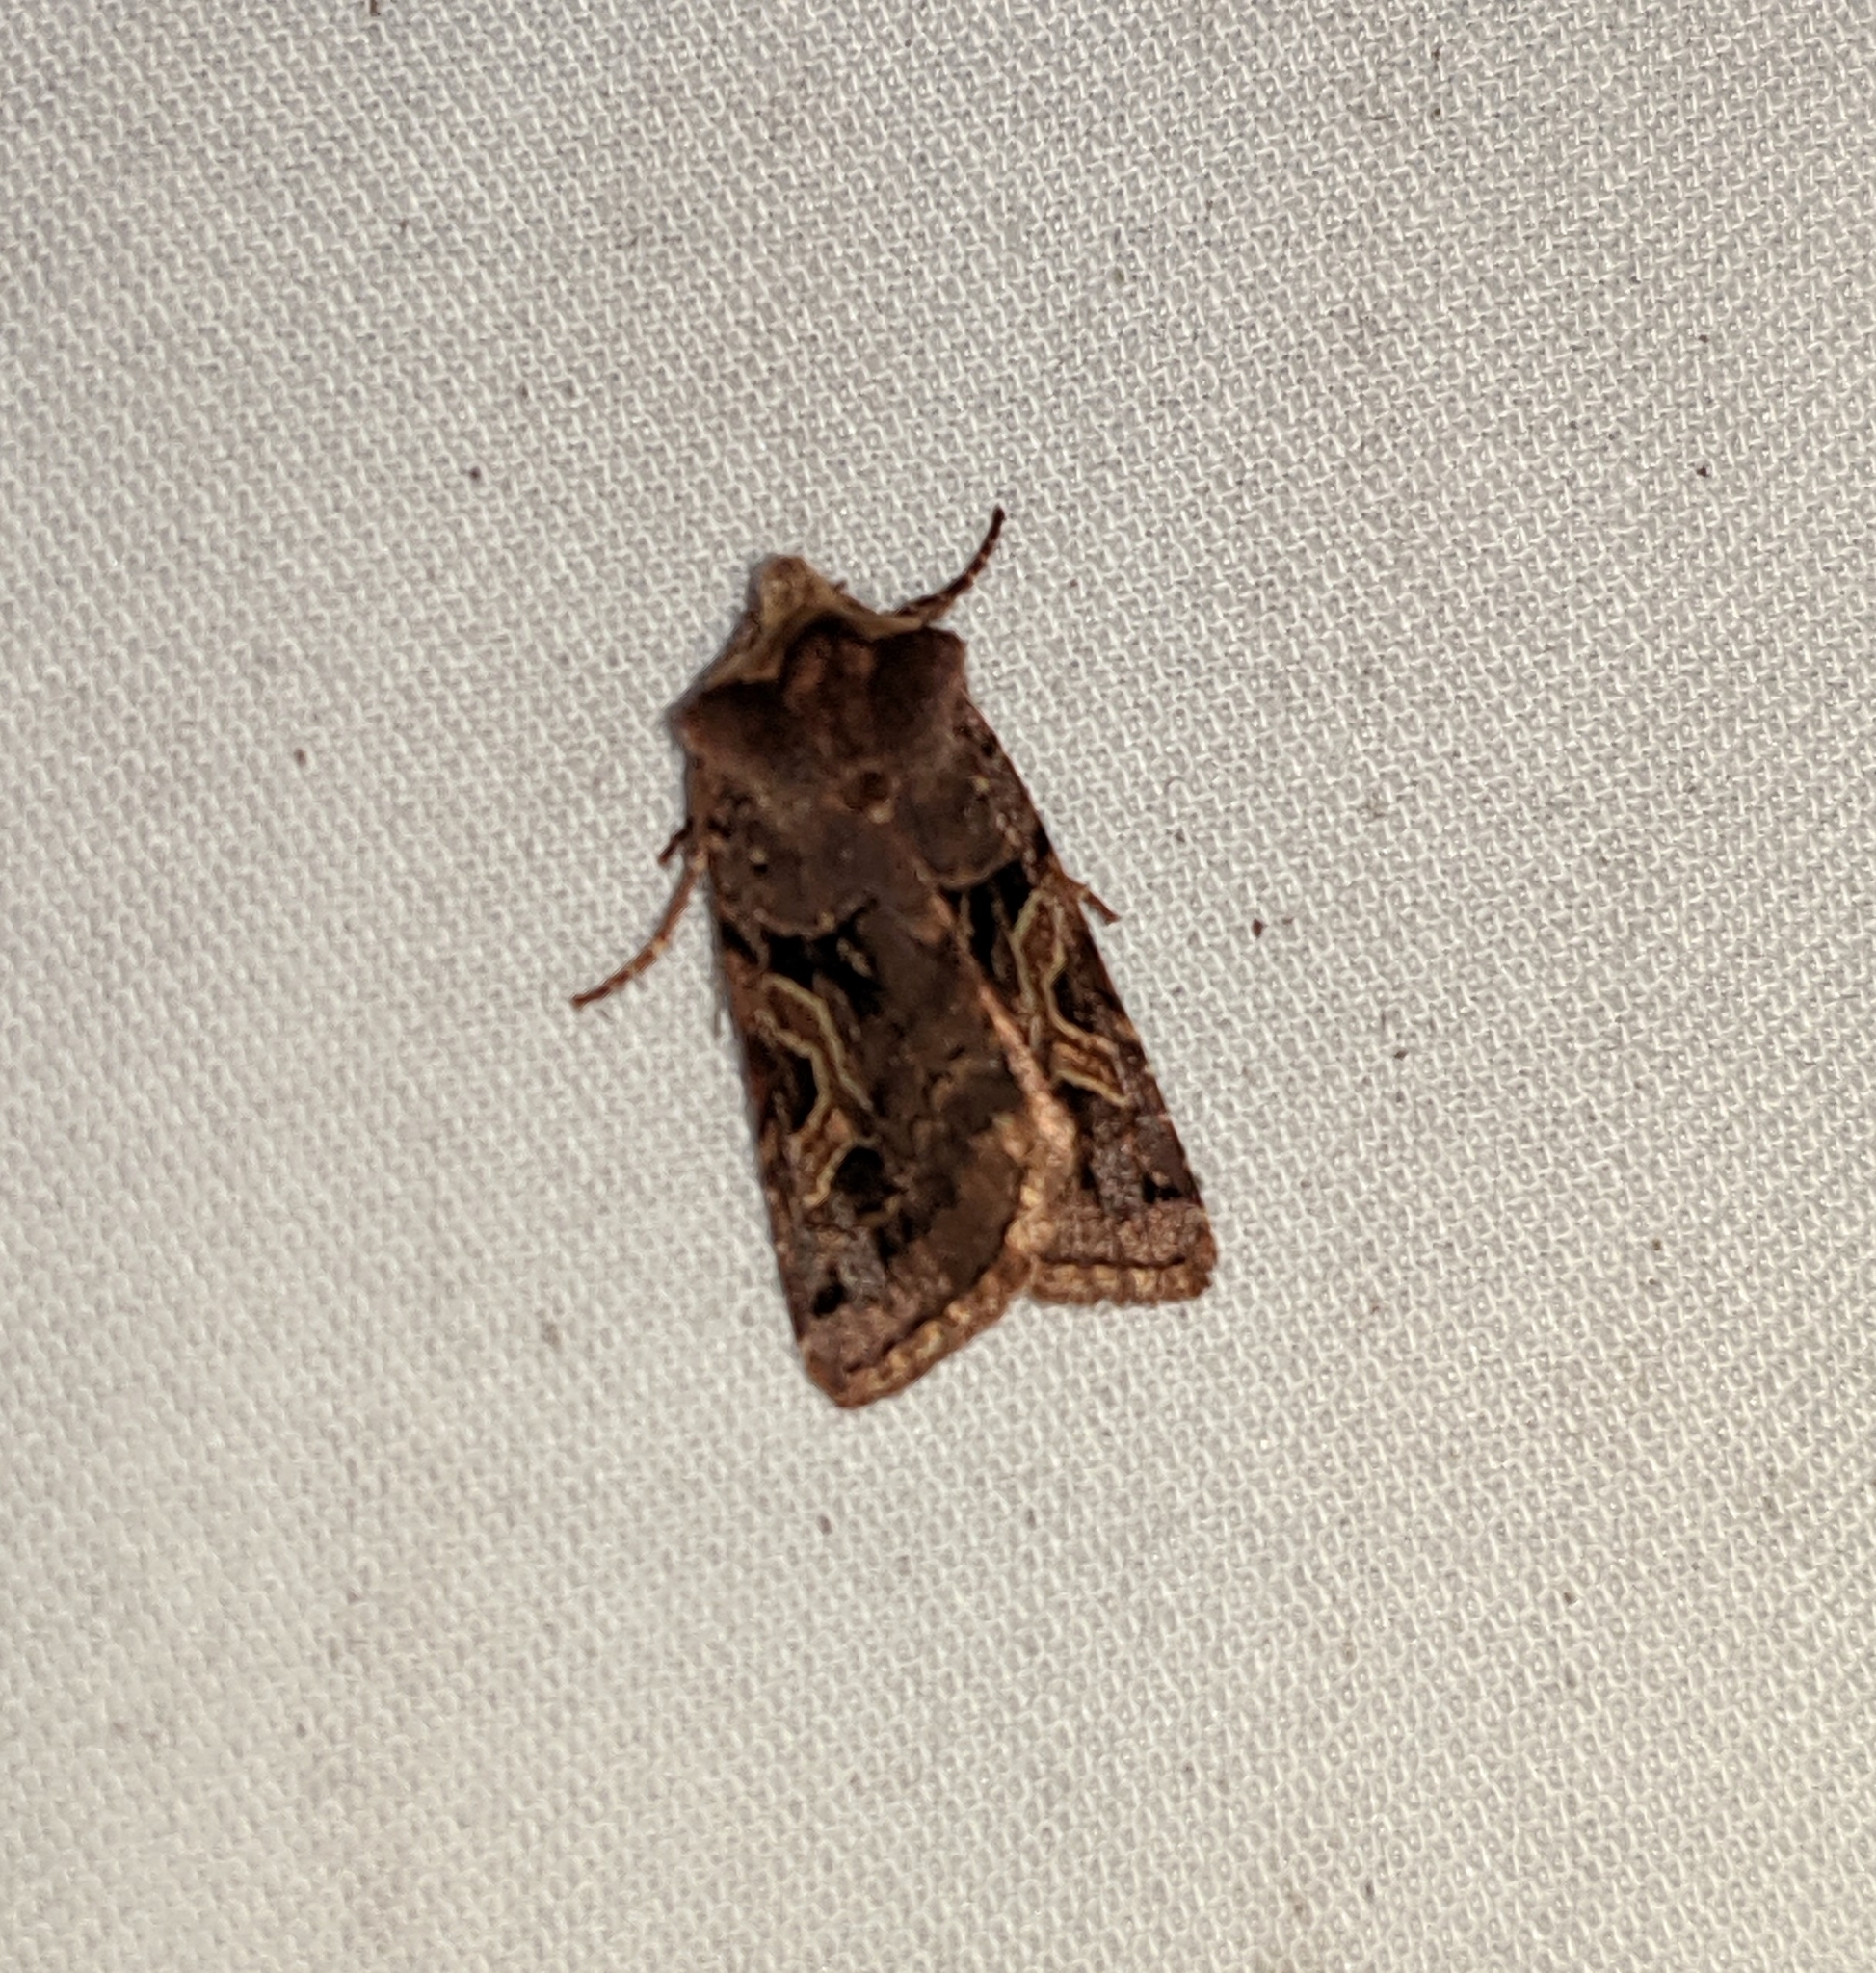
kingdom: Animalia
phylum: Arthropoda
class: Insecta
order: Lepidoptera
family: Noctuidae
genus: Cerastis
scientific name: Cerastis enigmatica
